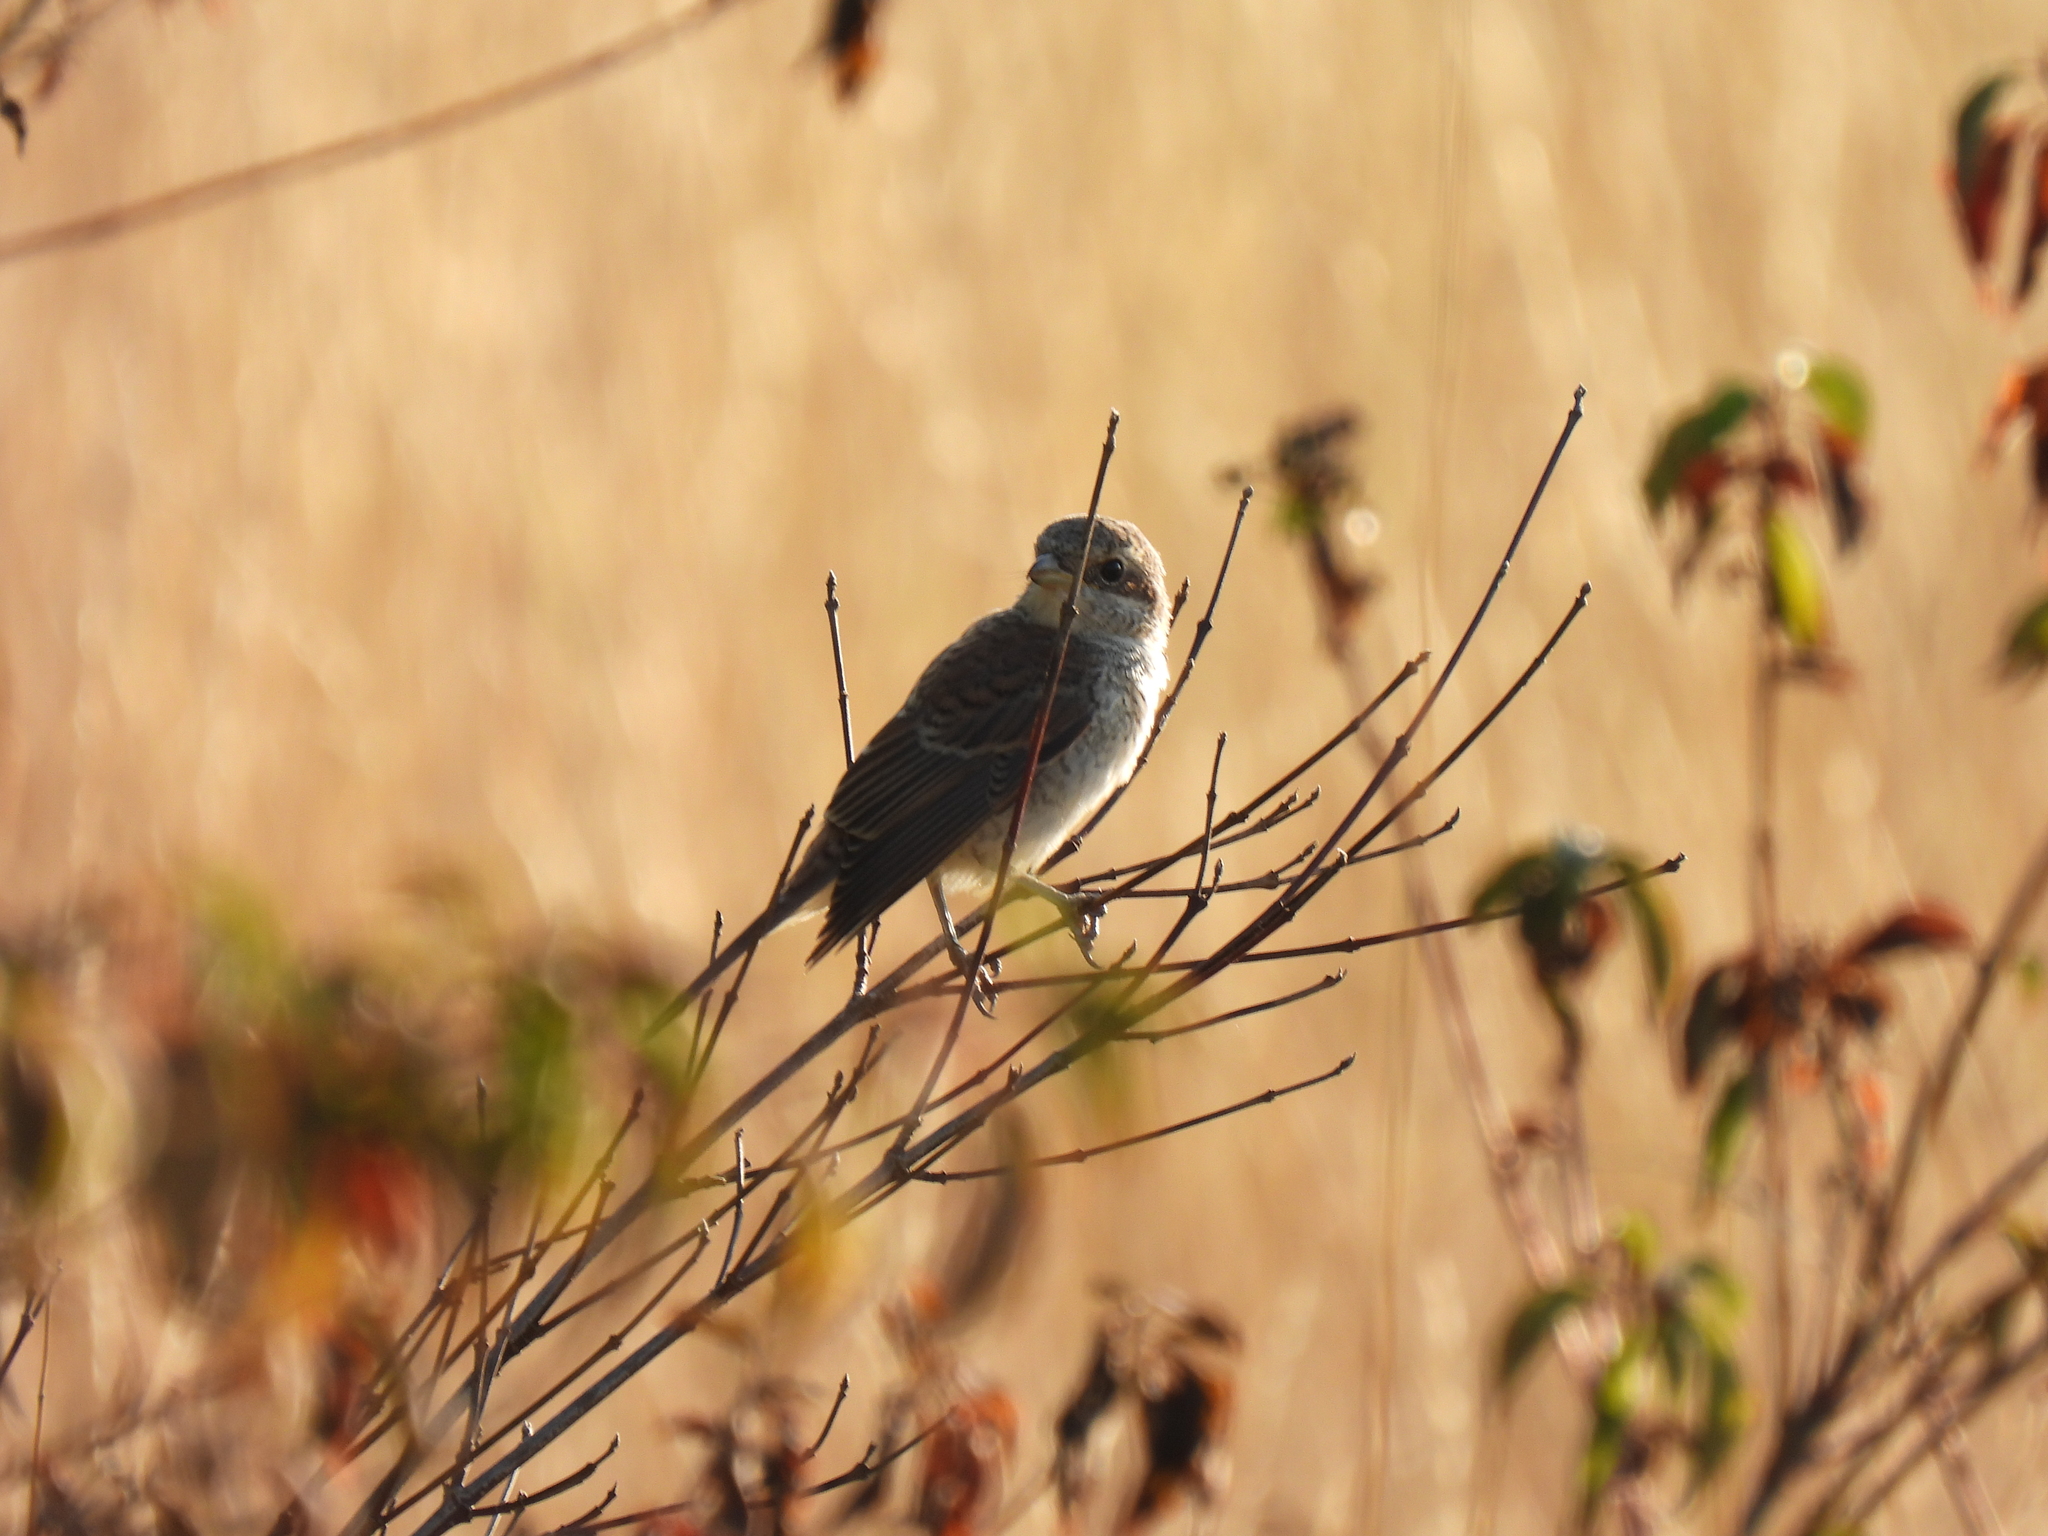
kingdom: Animalia
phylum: Chordata
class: Aves
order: Passeriformes
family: Laniidae
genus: Lanius
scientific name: Lanius collurio
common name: Red-backed shrike
